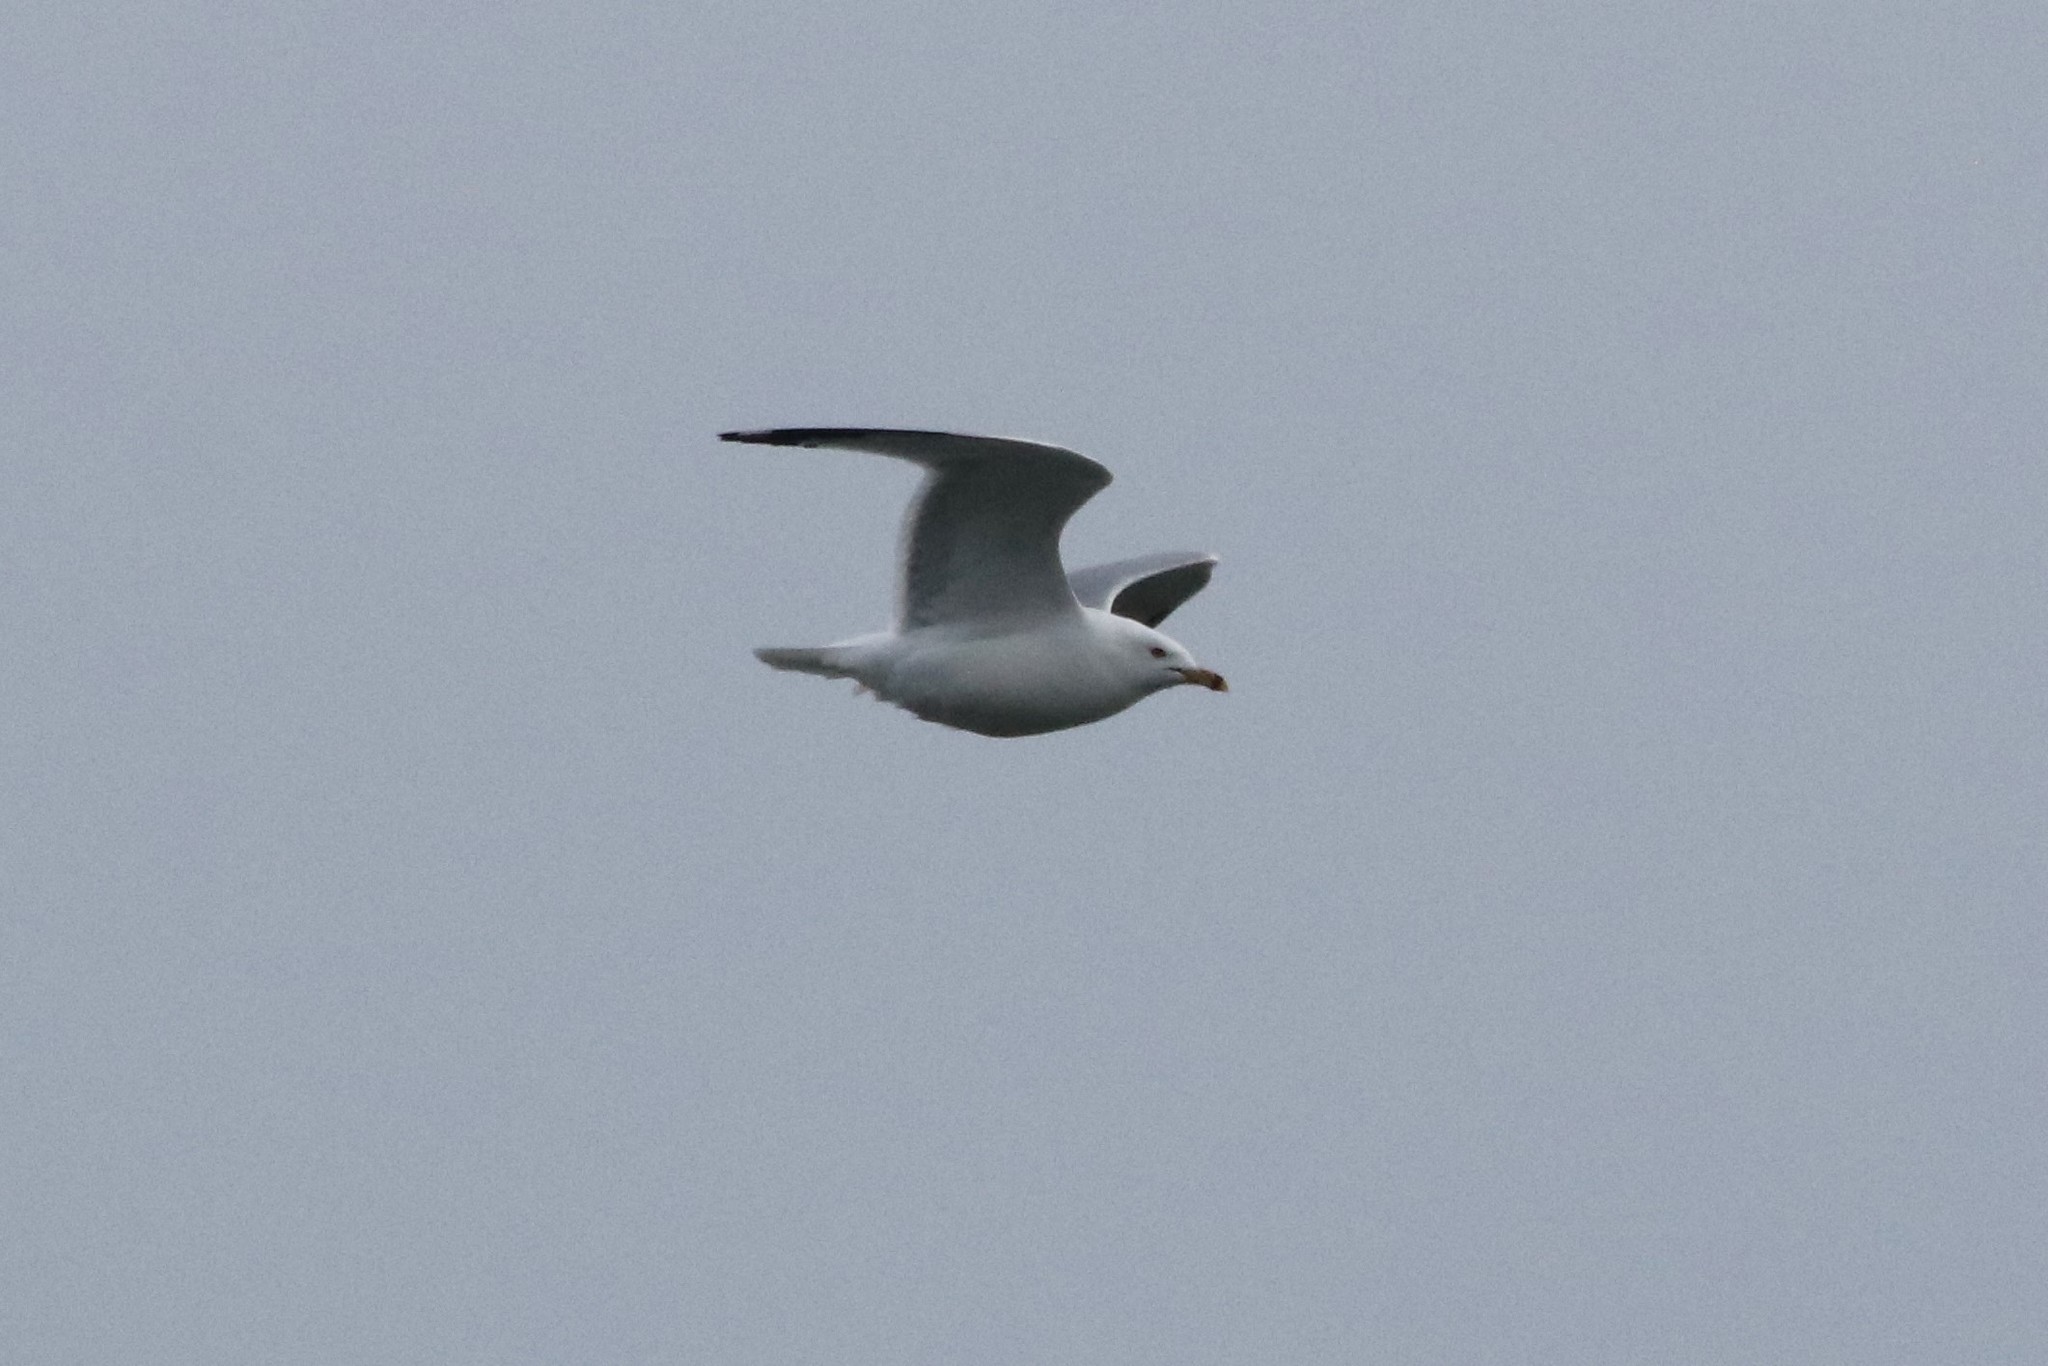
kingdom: Animalia
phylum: Chordata
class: Aves
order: Charadriiformes
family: Laridae
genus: Larus
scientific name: Larus delawarensis
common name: Ring-billed gull
